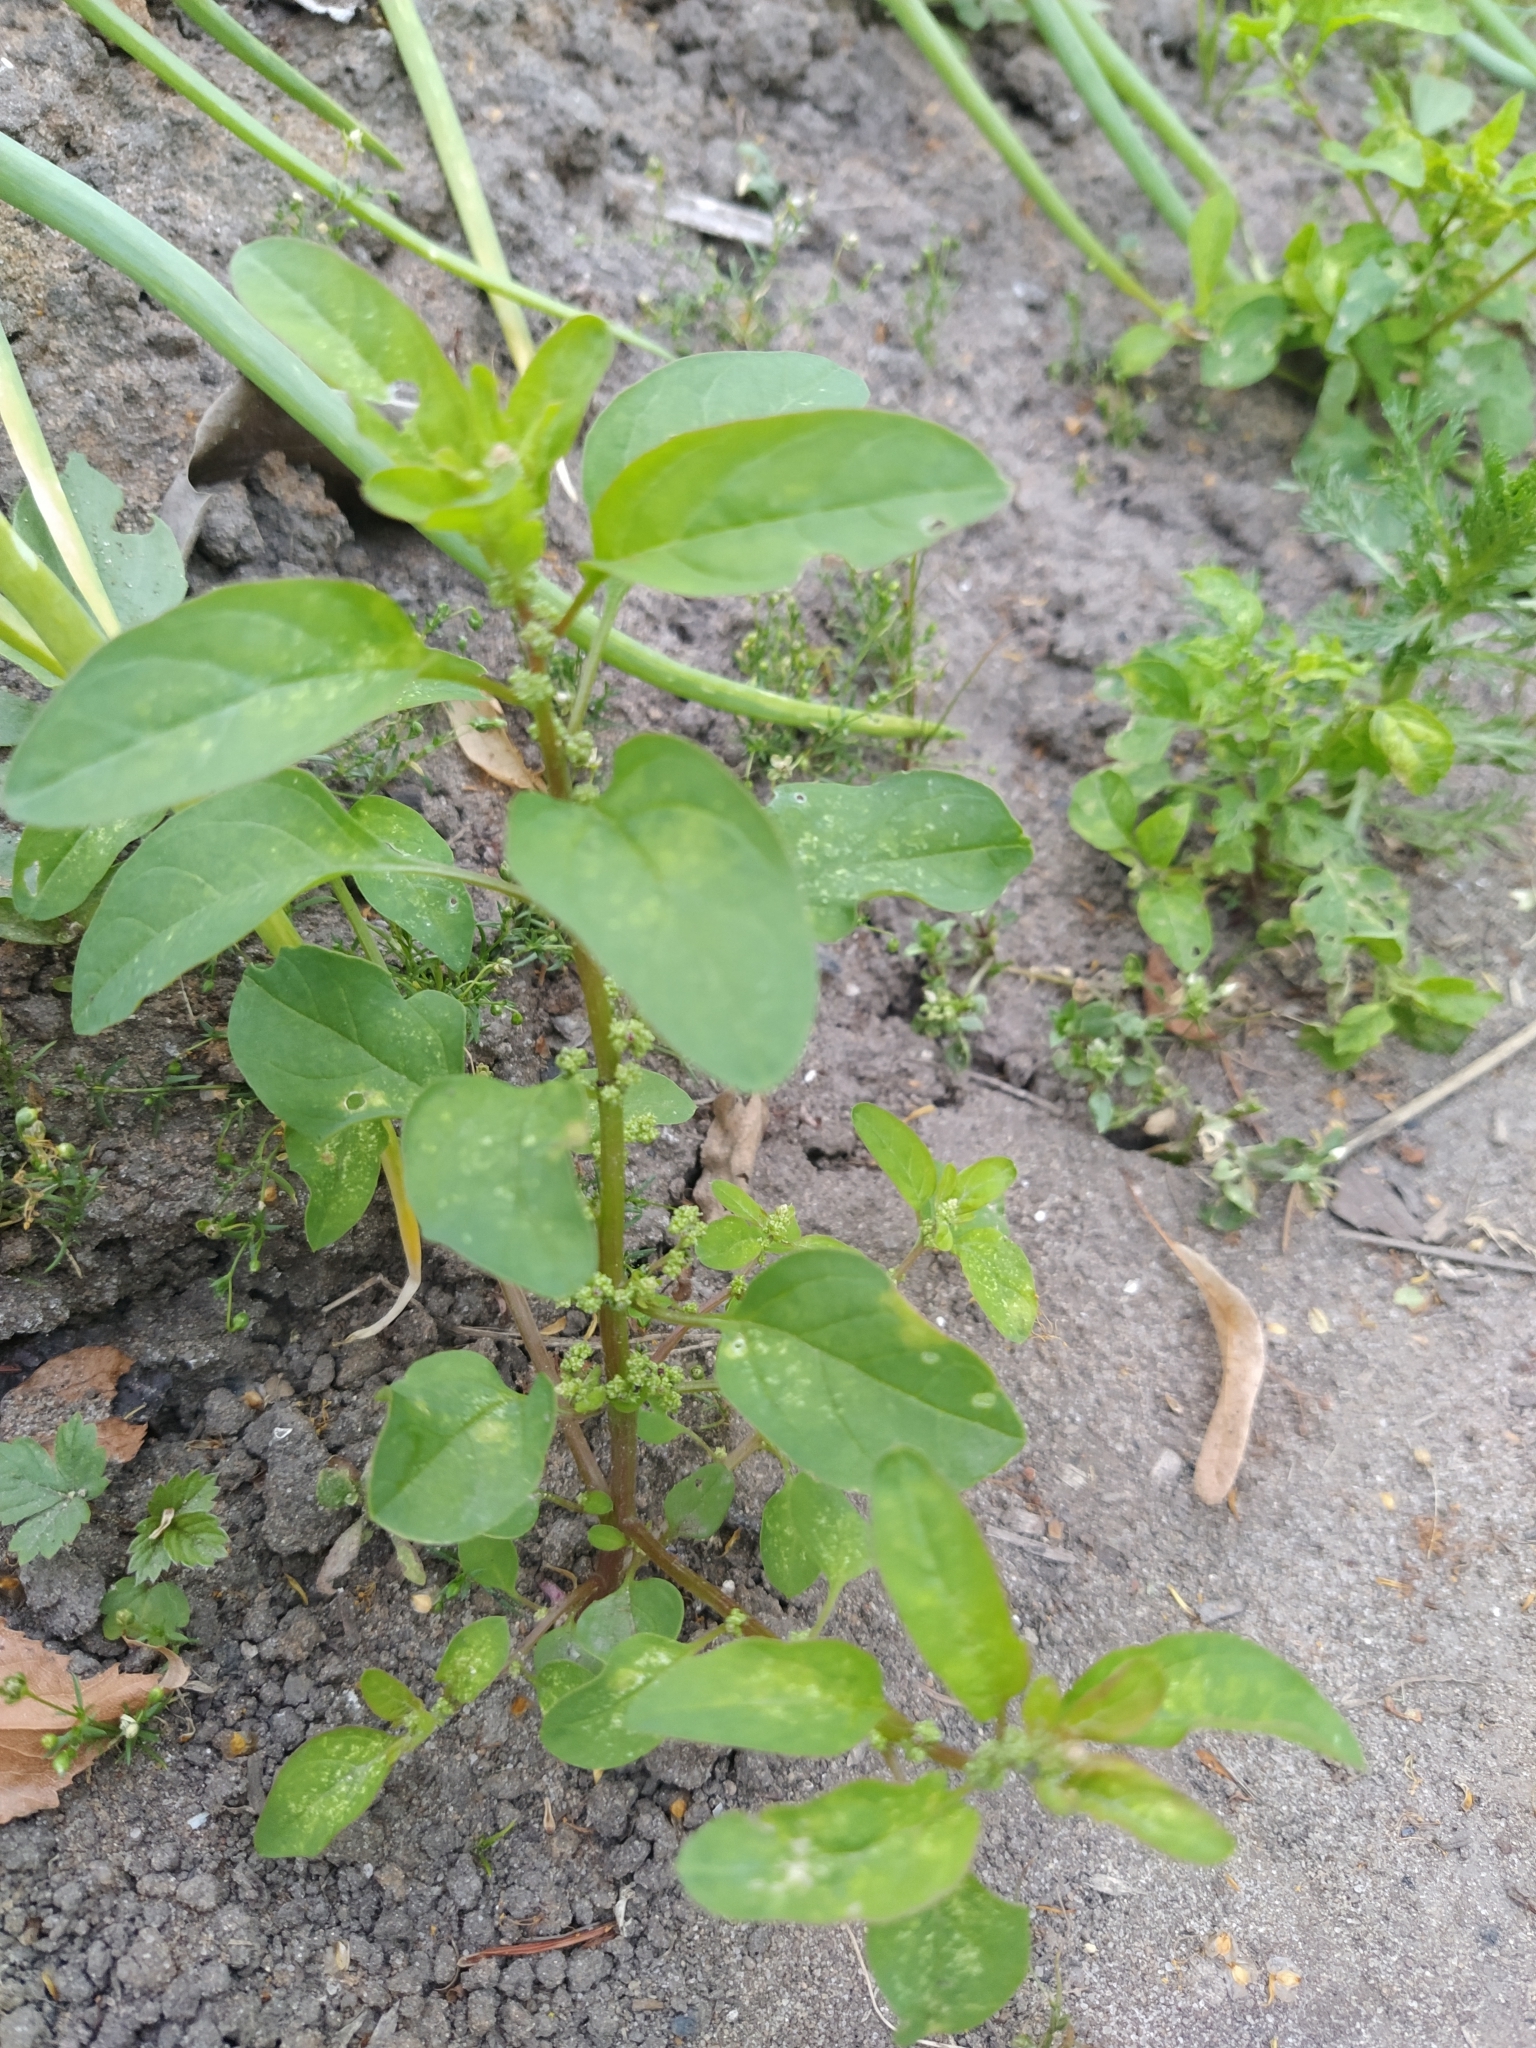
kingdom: Plantae
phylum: Tracheophyta
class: Magnoliopsida
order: Caryophyllales
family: Amaranthaceae
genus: Lipandra
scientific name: Lipandra polysperma
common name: Many-seed goosefoot
